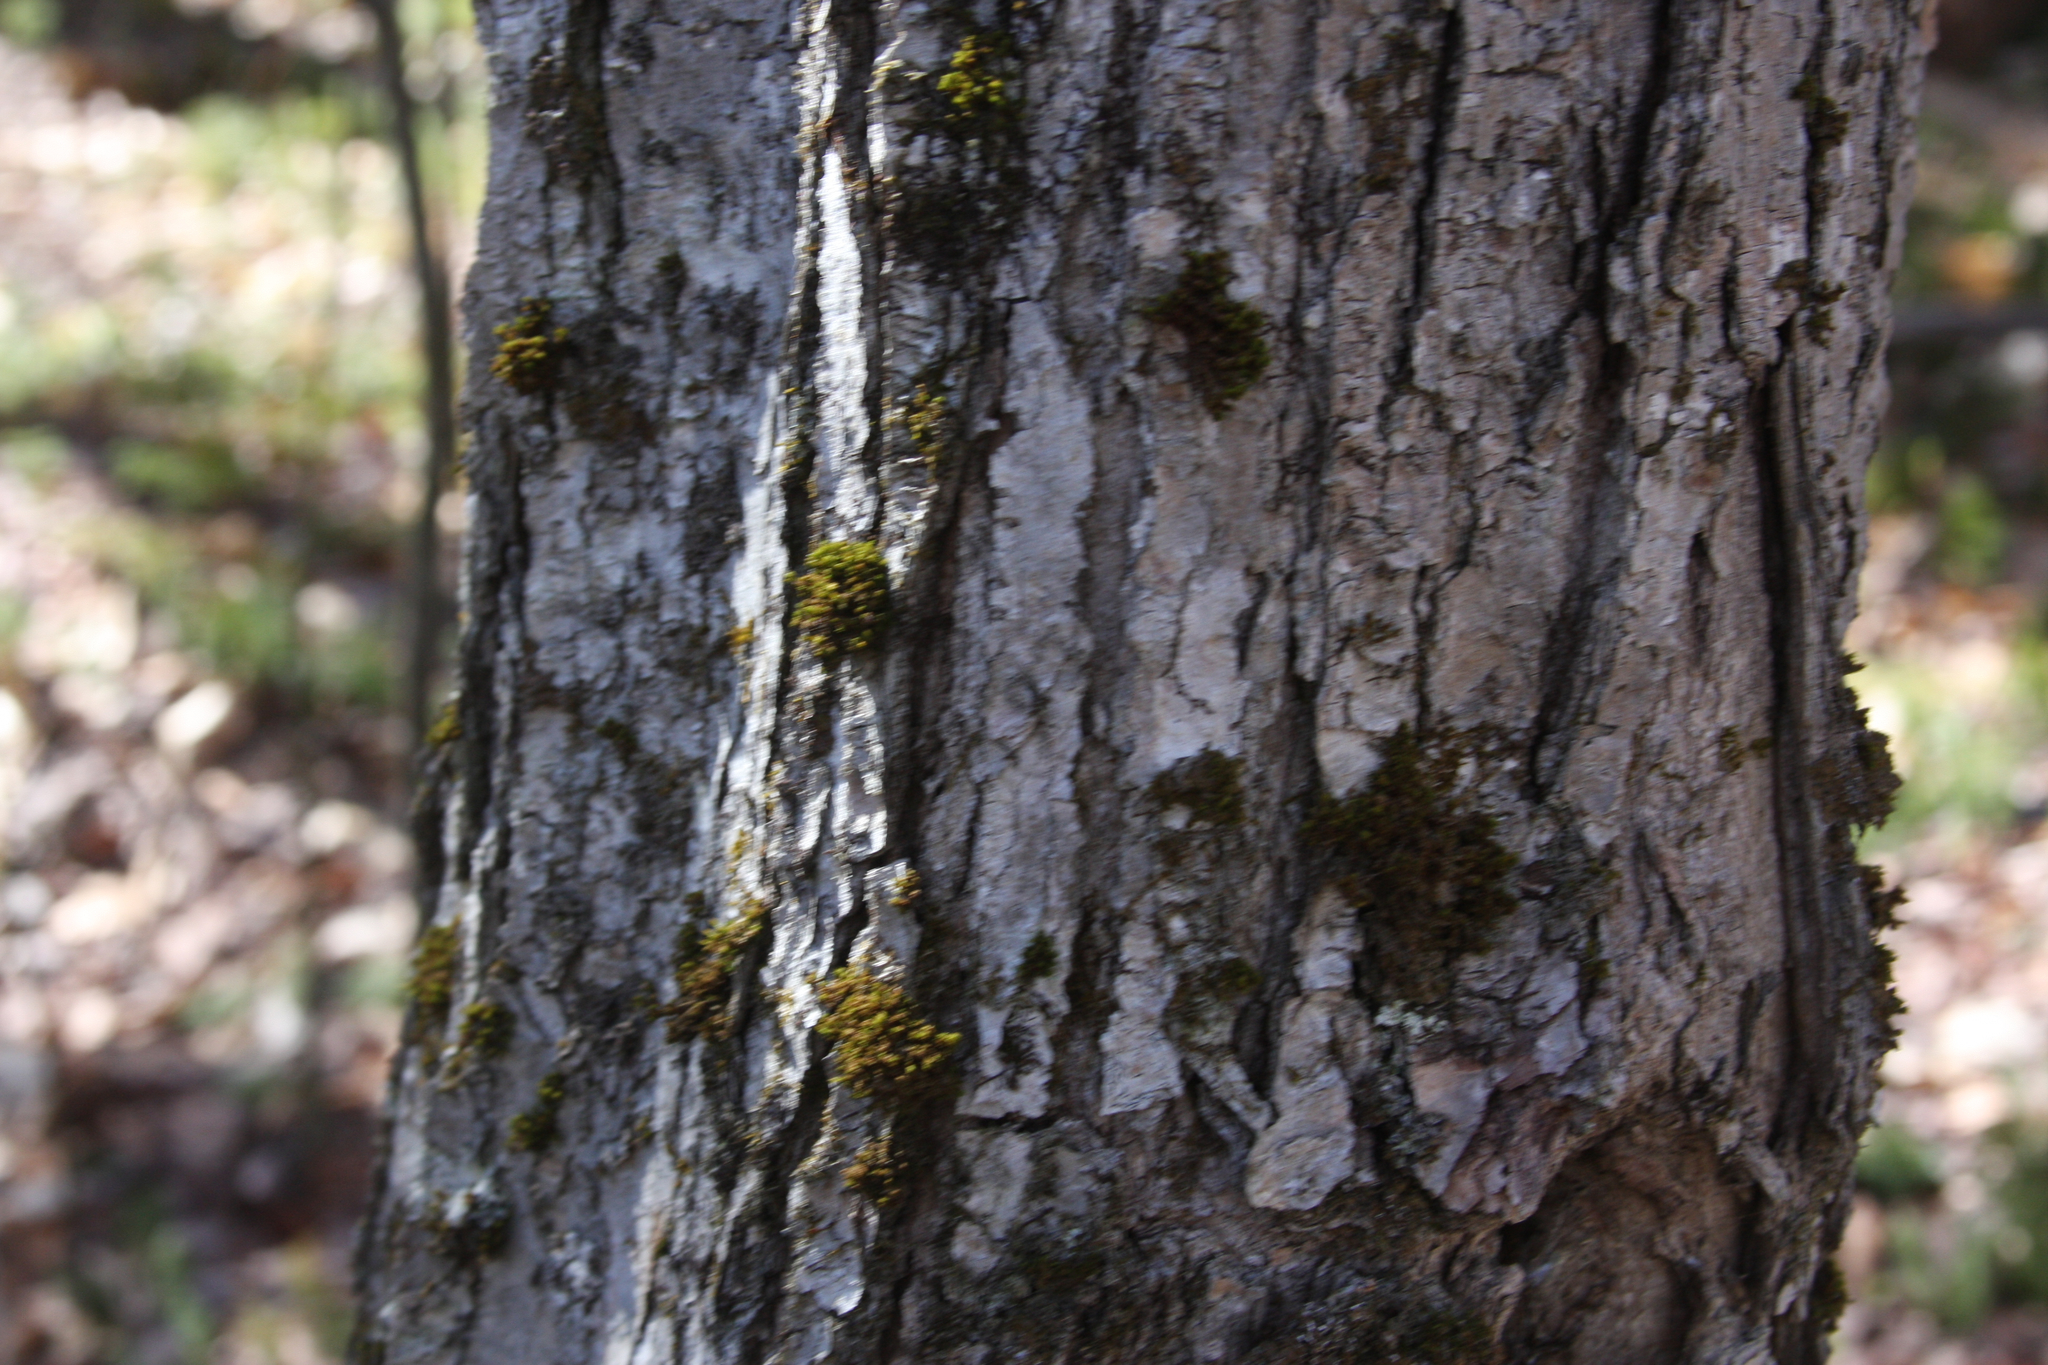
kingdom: Plantae
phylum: Bryophyta
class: Bryopsida
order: Orthotrichales
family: Orthotrichaceae
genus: Ulota
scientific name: Ulota crispa
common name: Crisped pincushion moss
